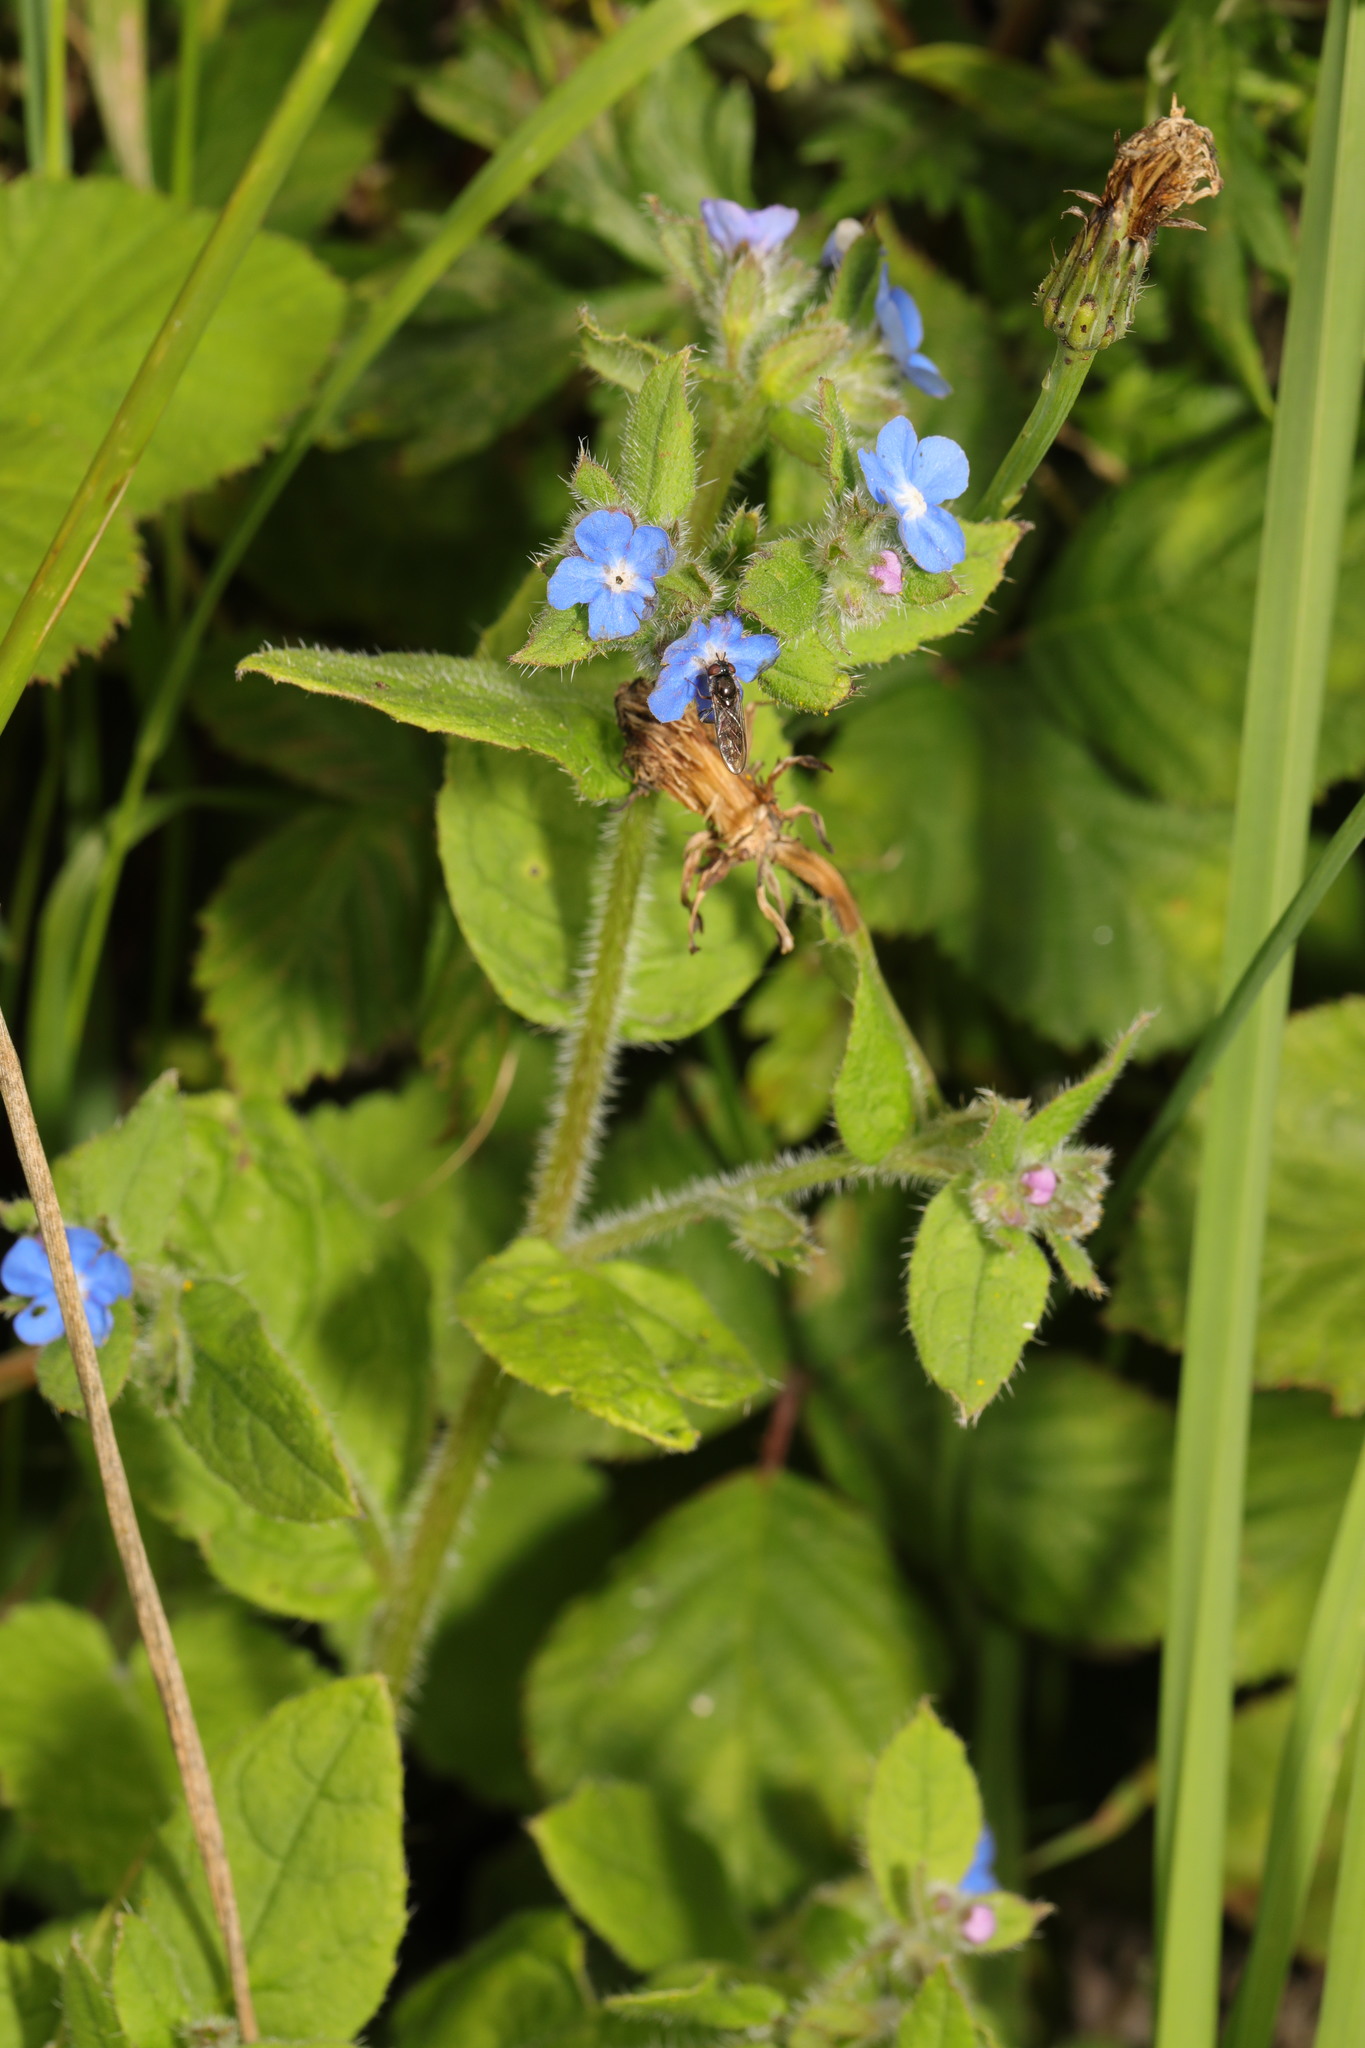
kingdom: Plantae
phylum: Tracheophyta
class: Magnoliopsida
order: Boraginales
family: Boraginaceae
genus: Pentaglottis
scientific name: Pentaglottis sempervirens
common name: Green alkanet
